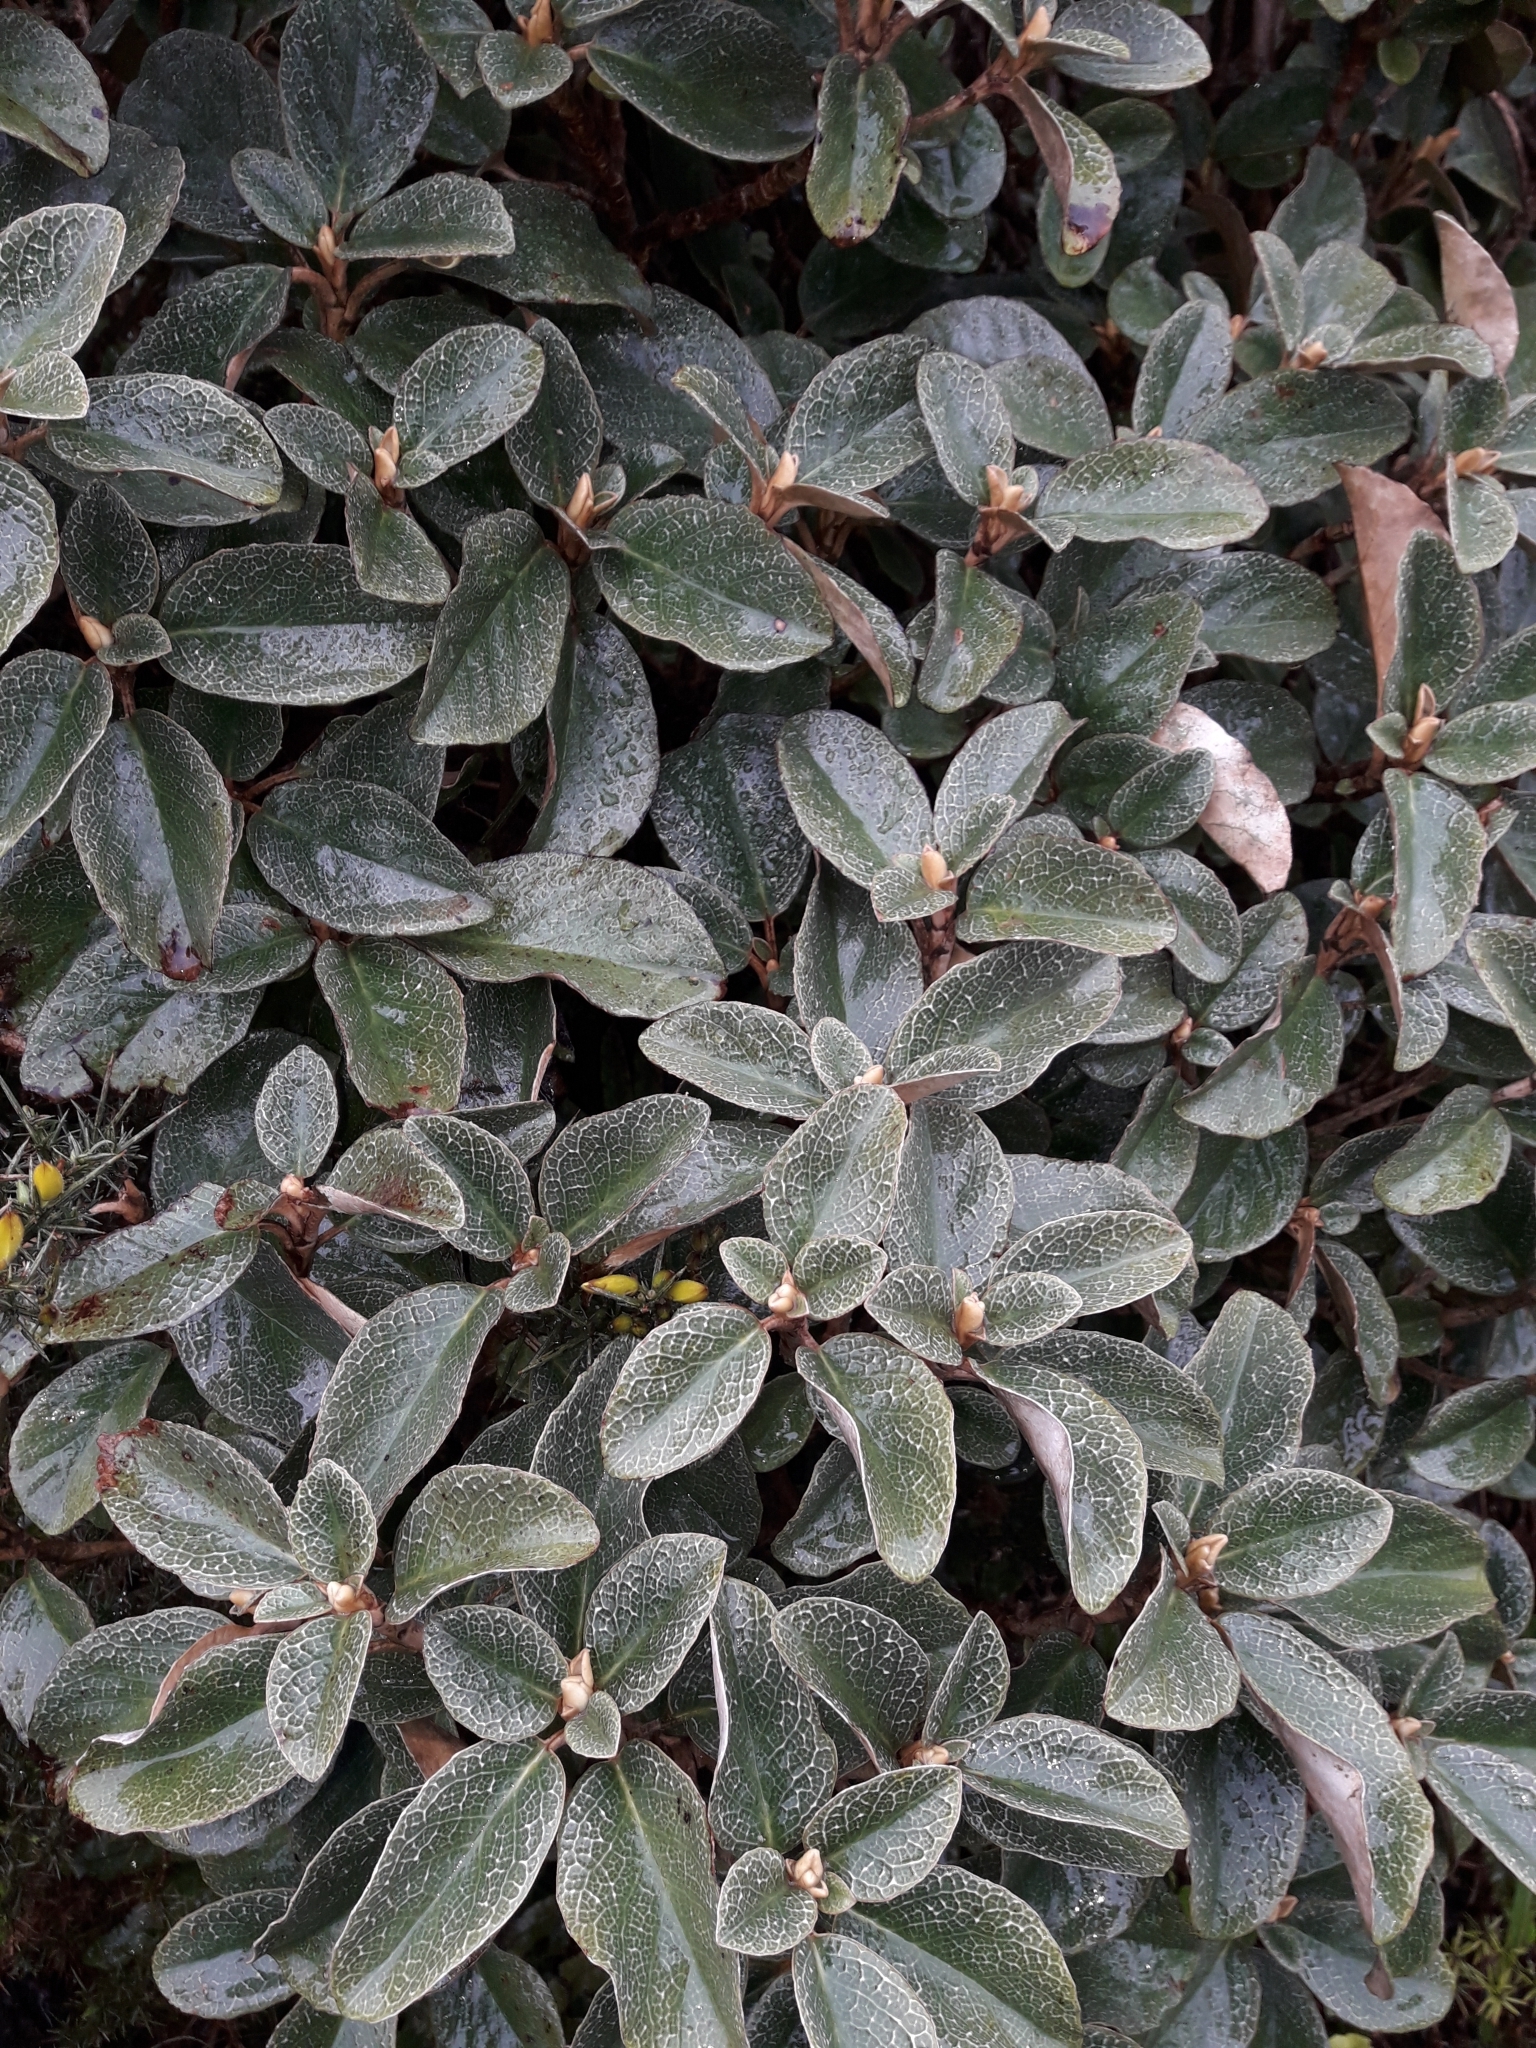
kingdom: Plantae
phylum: Tracheophyta
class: Magnoliopsida
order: Asterales
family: Asteraceae
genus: Brachyglottis
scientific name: Brachyglottis elaeagnifolia
